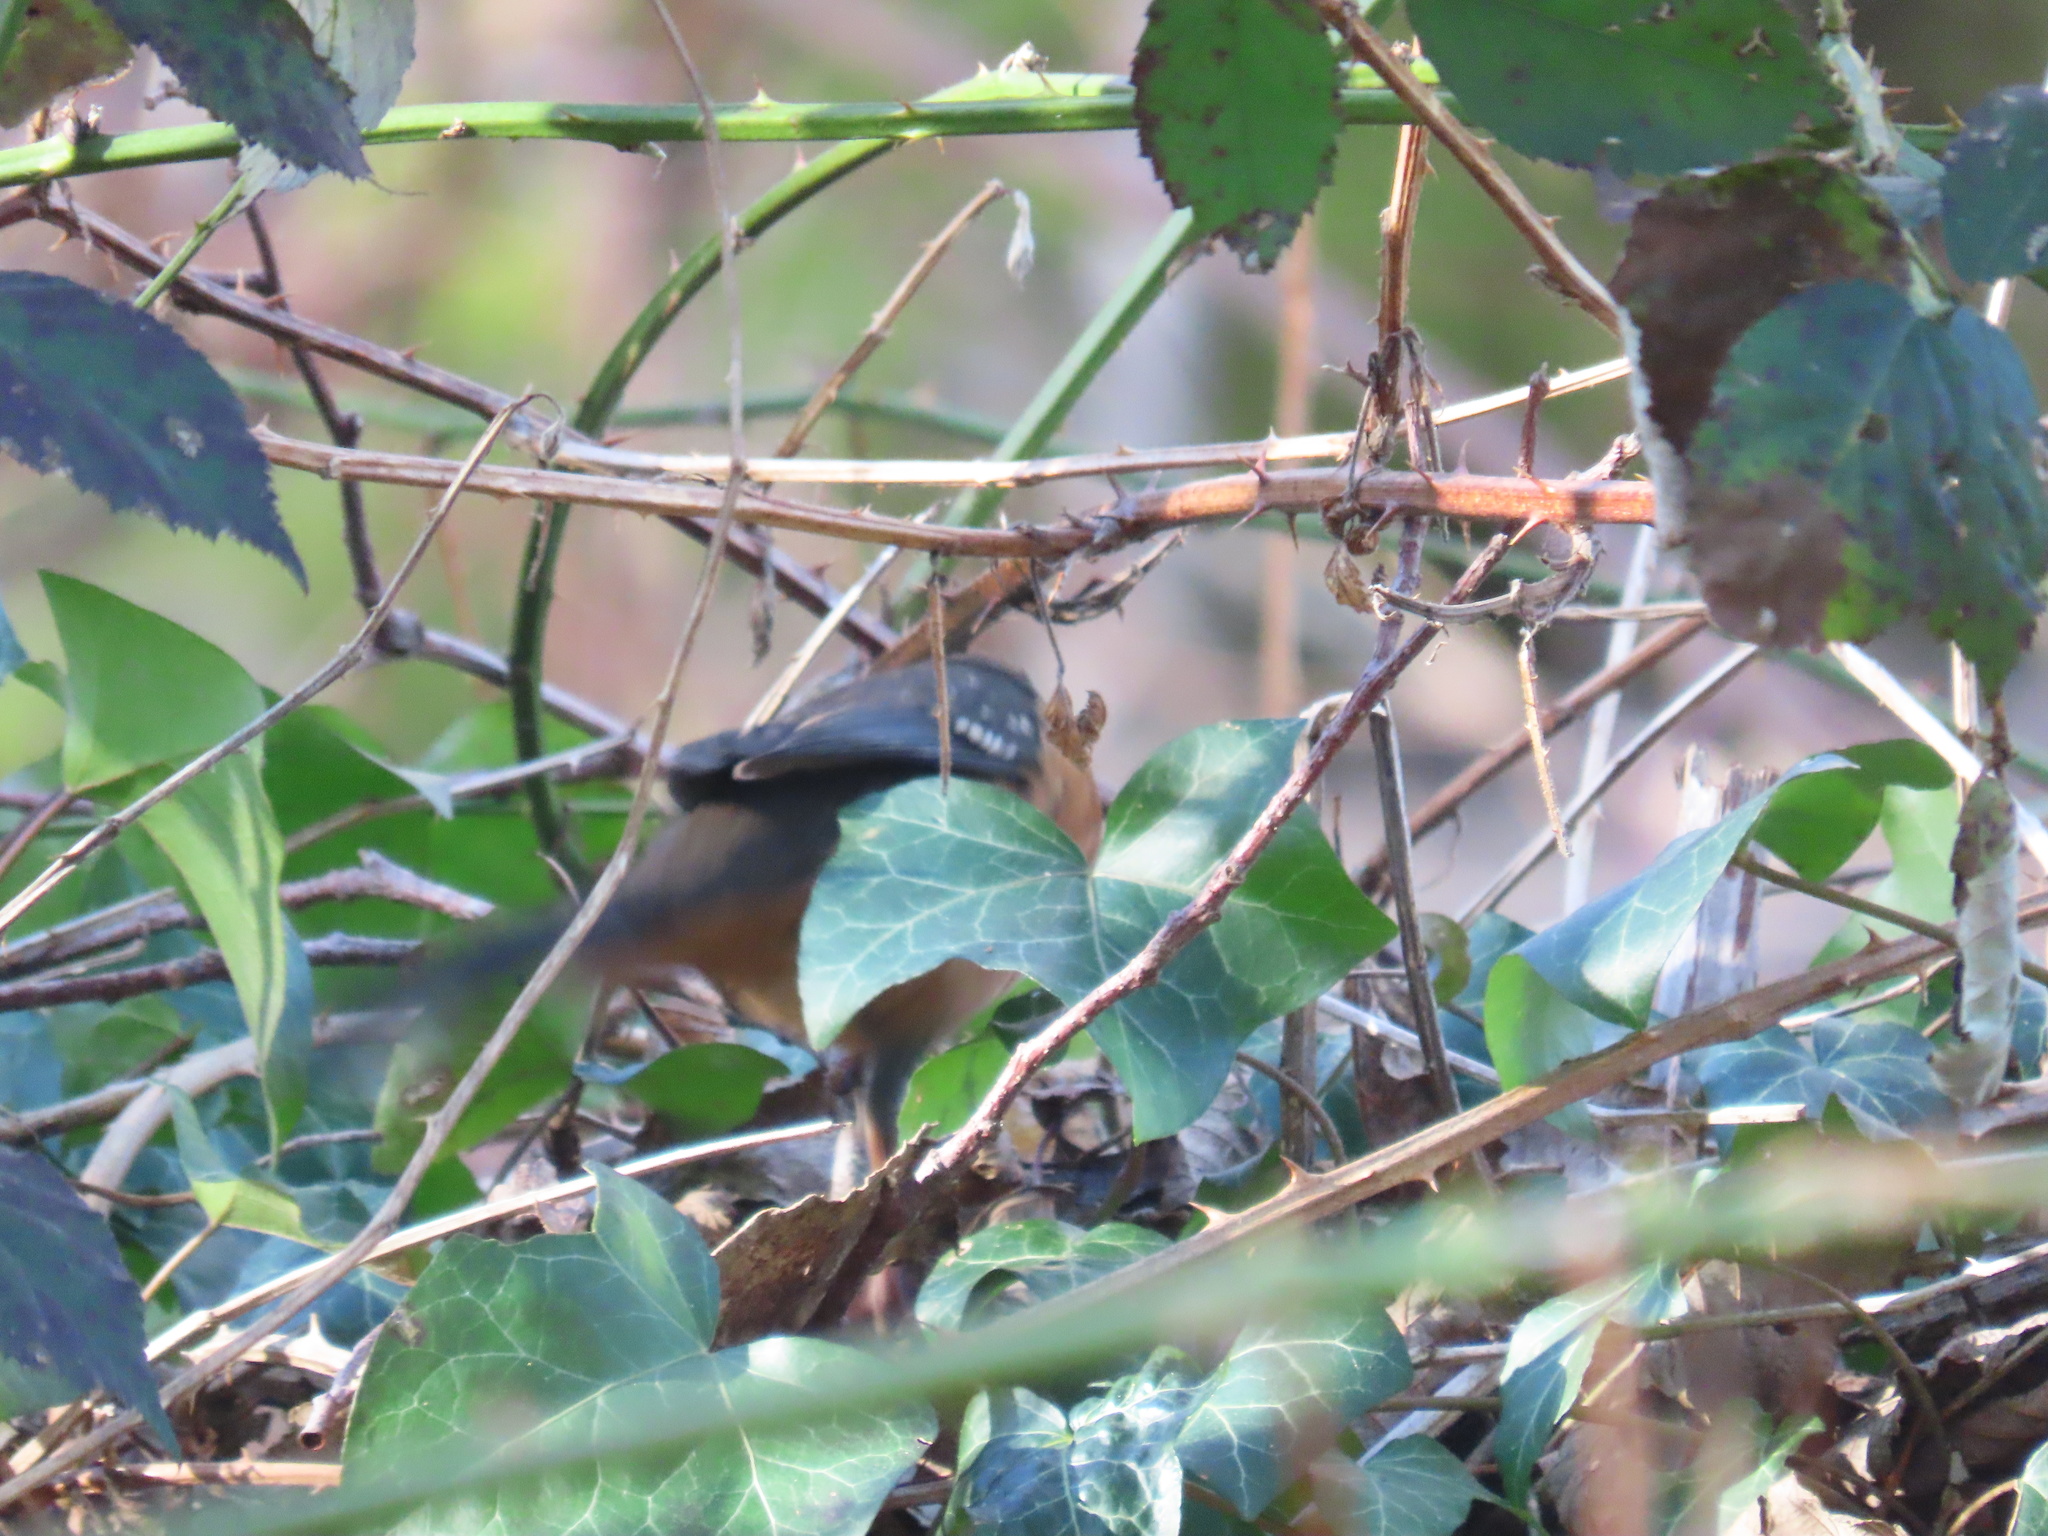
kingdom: Animalia
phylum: Chordata
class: Aves
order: Passeriformes
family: Passerellidae
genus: Pipilo
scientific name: Pipilo maculatus
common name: Spotted towhee
